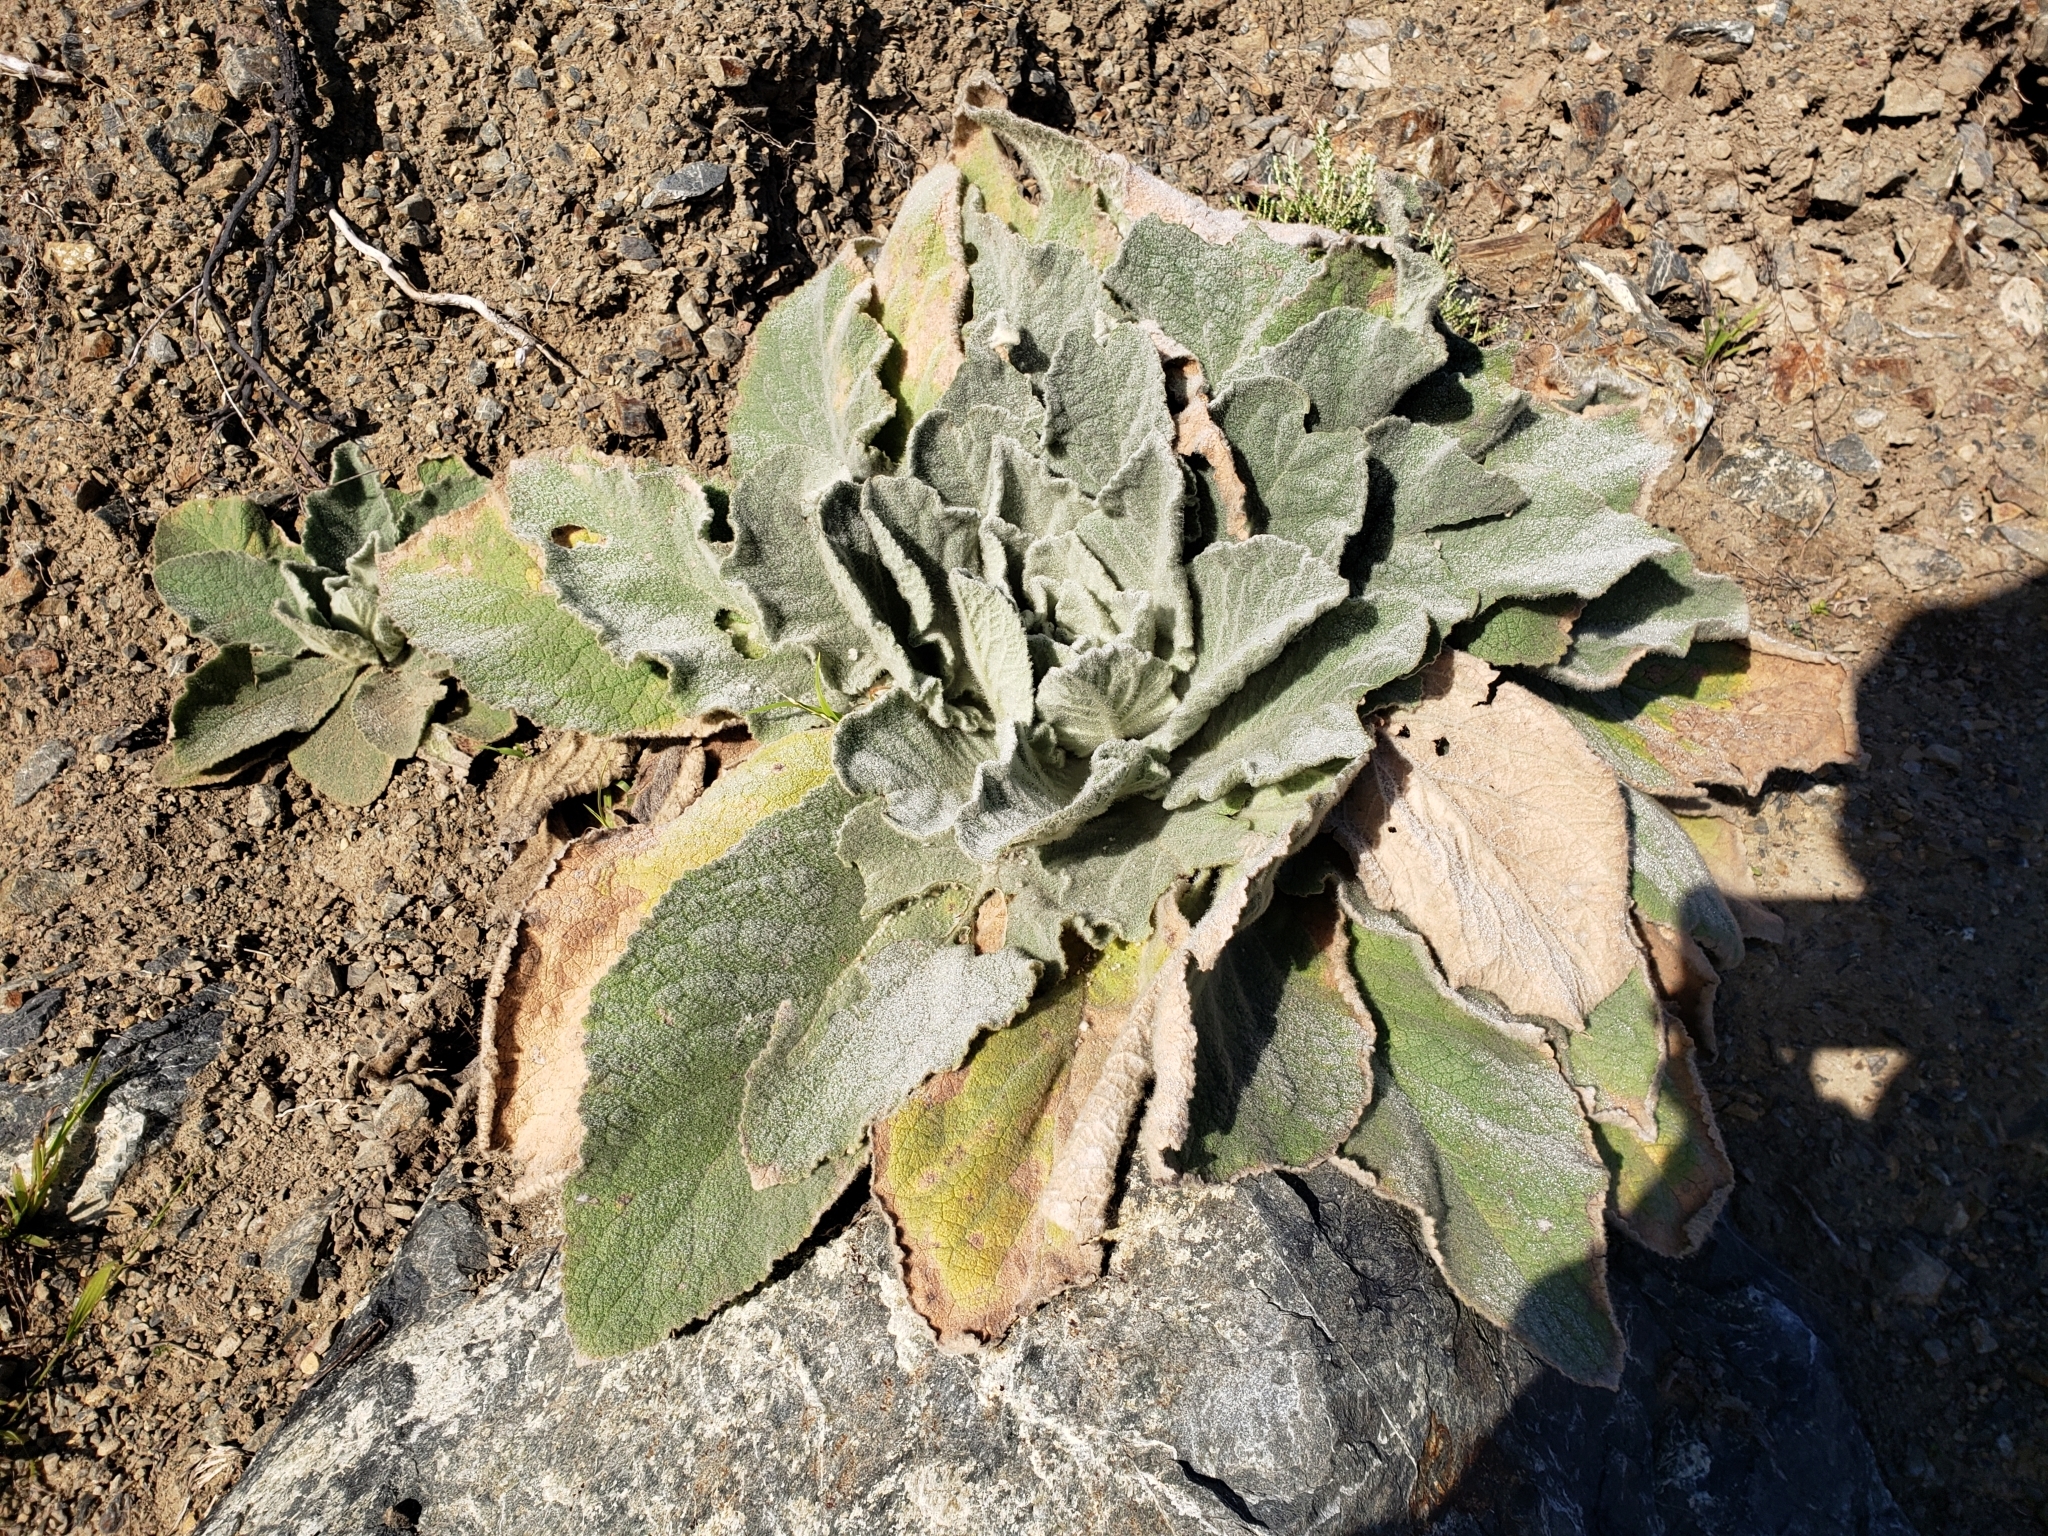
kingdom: Plantae
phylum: Tracheophyta
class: Magnoliopsida
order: Lamiales
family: Scrophulariaceae
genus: Verbascum
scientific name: Verbascum thapsus
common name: Common mullein
